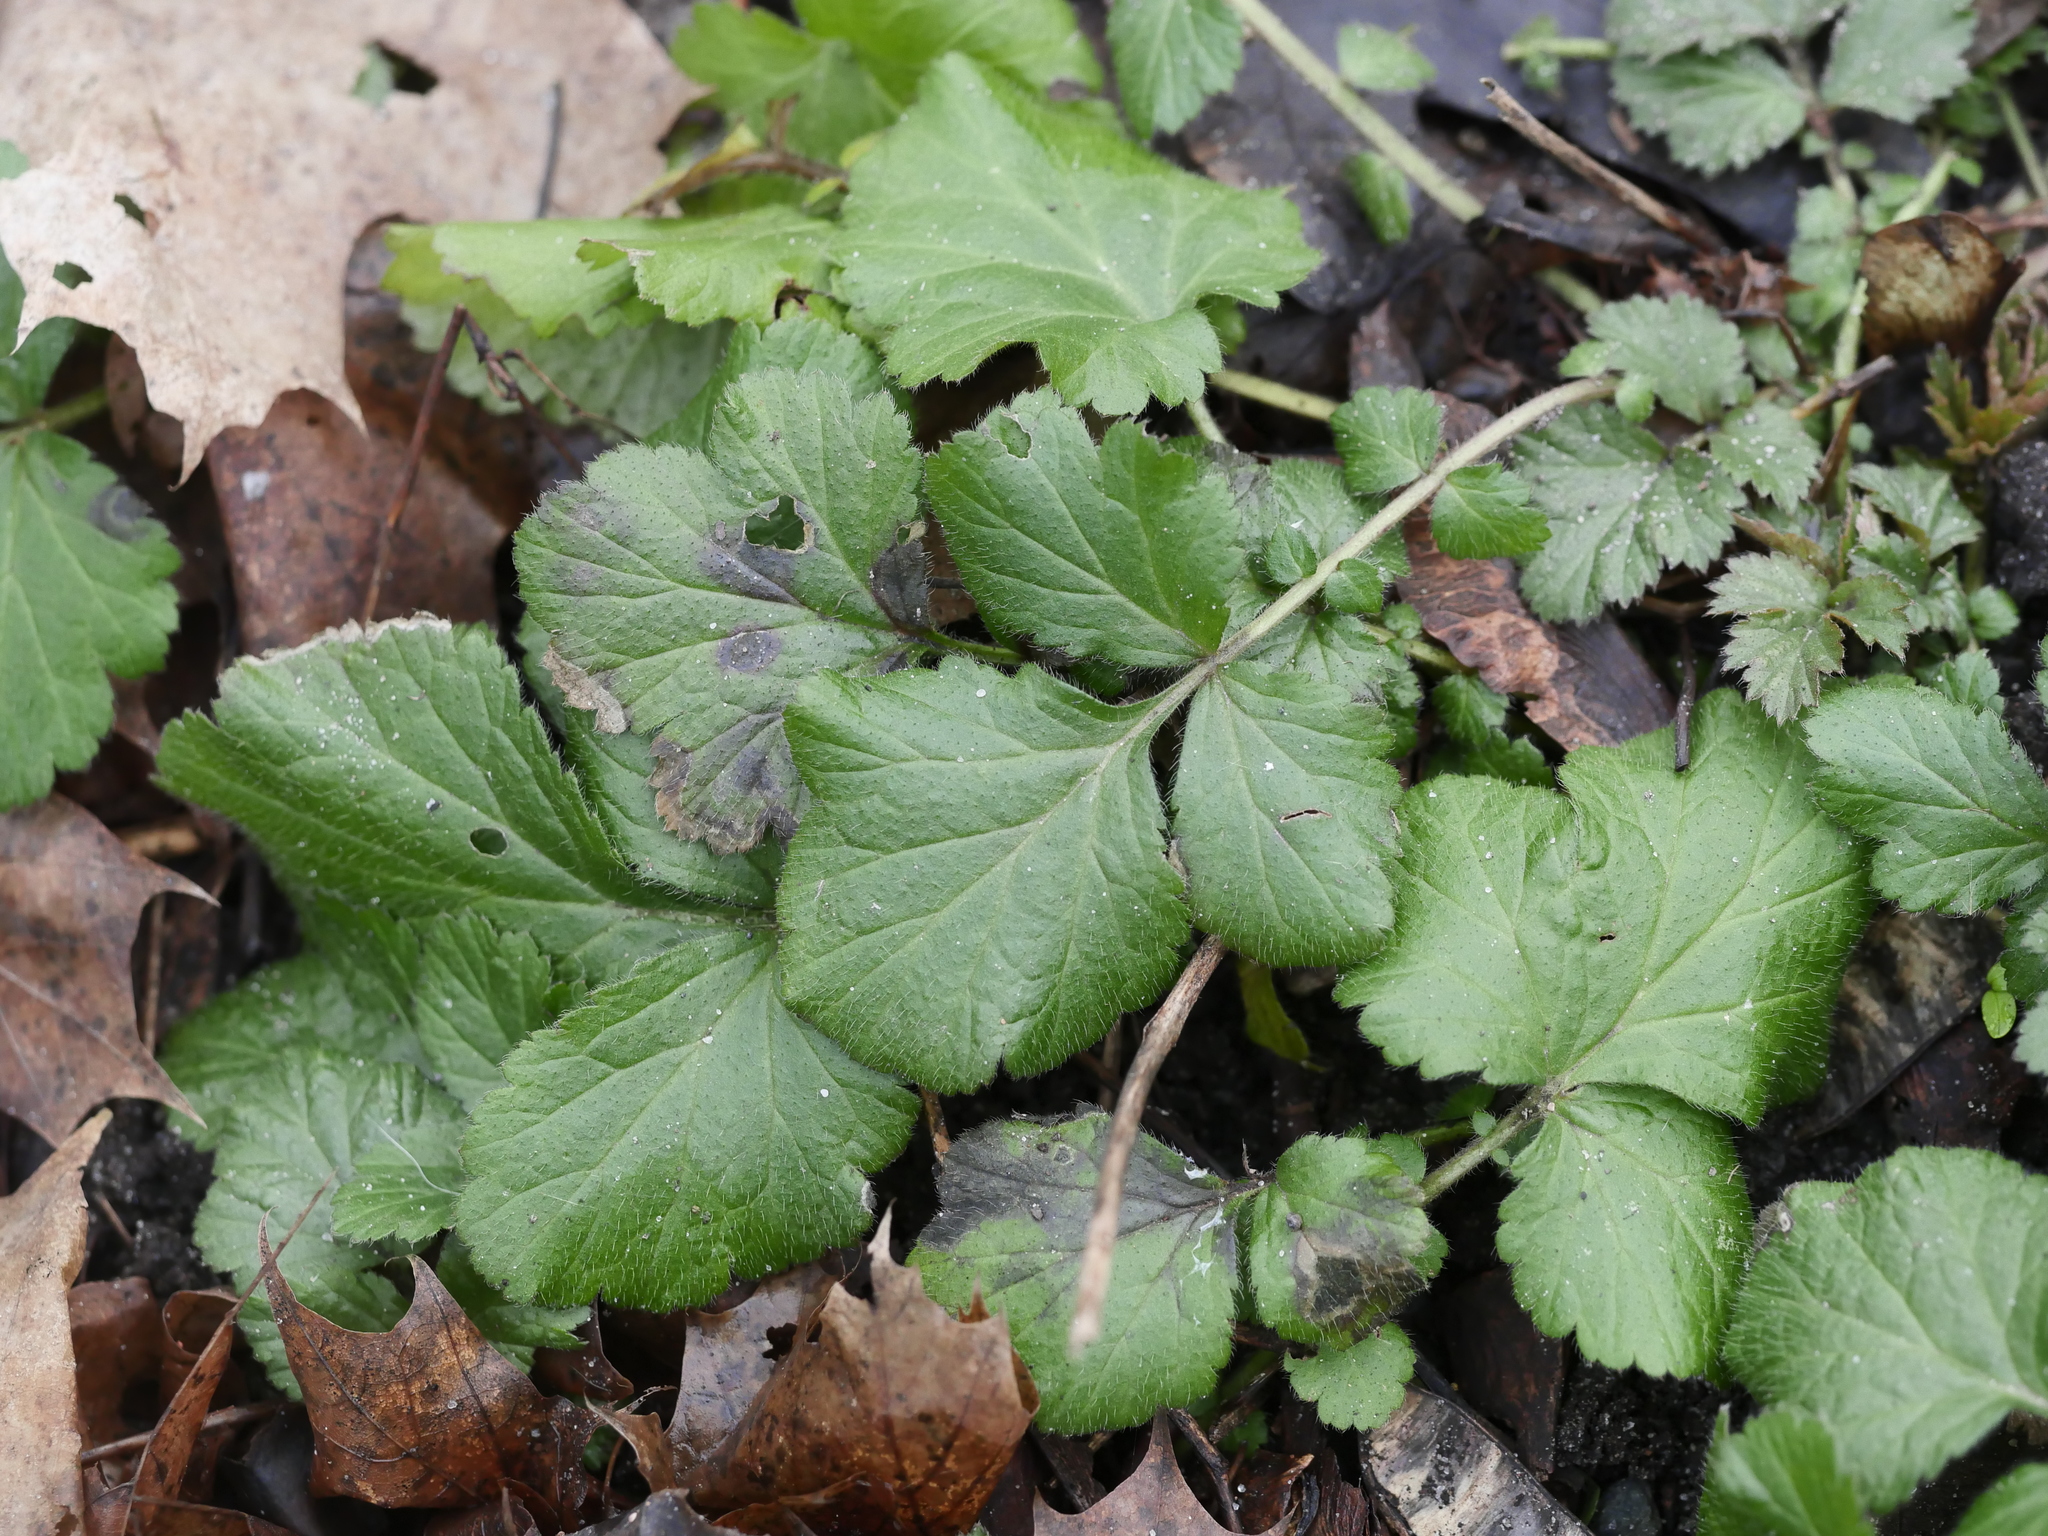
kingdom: Plantae
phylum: Tracheophyta
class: Magnoliopsida
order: Rosales
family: Rosaceae
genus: Geum
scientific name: Geum urbanum
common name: Wood avens
